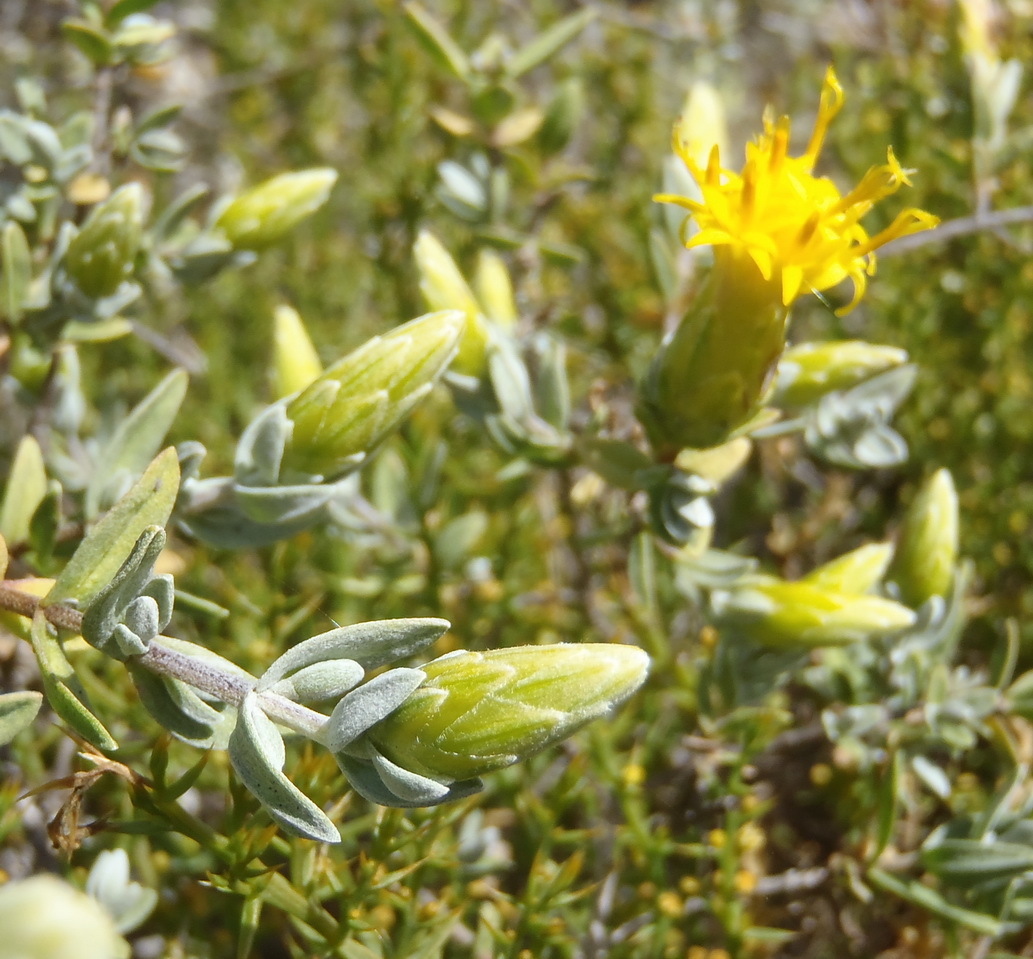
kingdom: Plantae
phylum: Tracheophyta
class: Magnoliopsida
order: Asterales
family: Asteraceae
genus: Pteronia
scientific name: Pteronia ovalifolia
